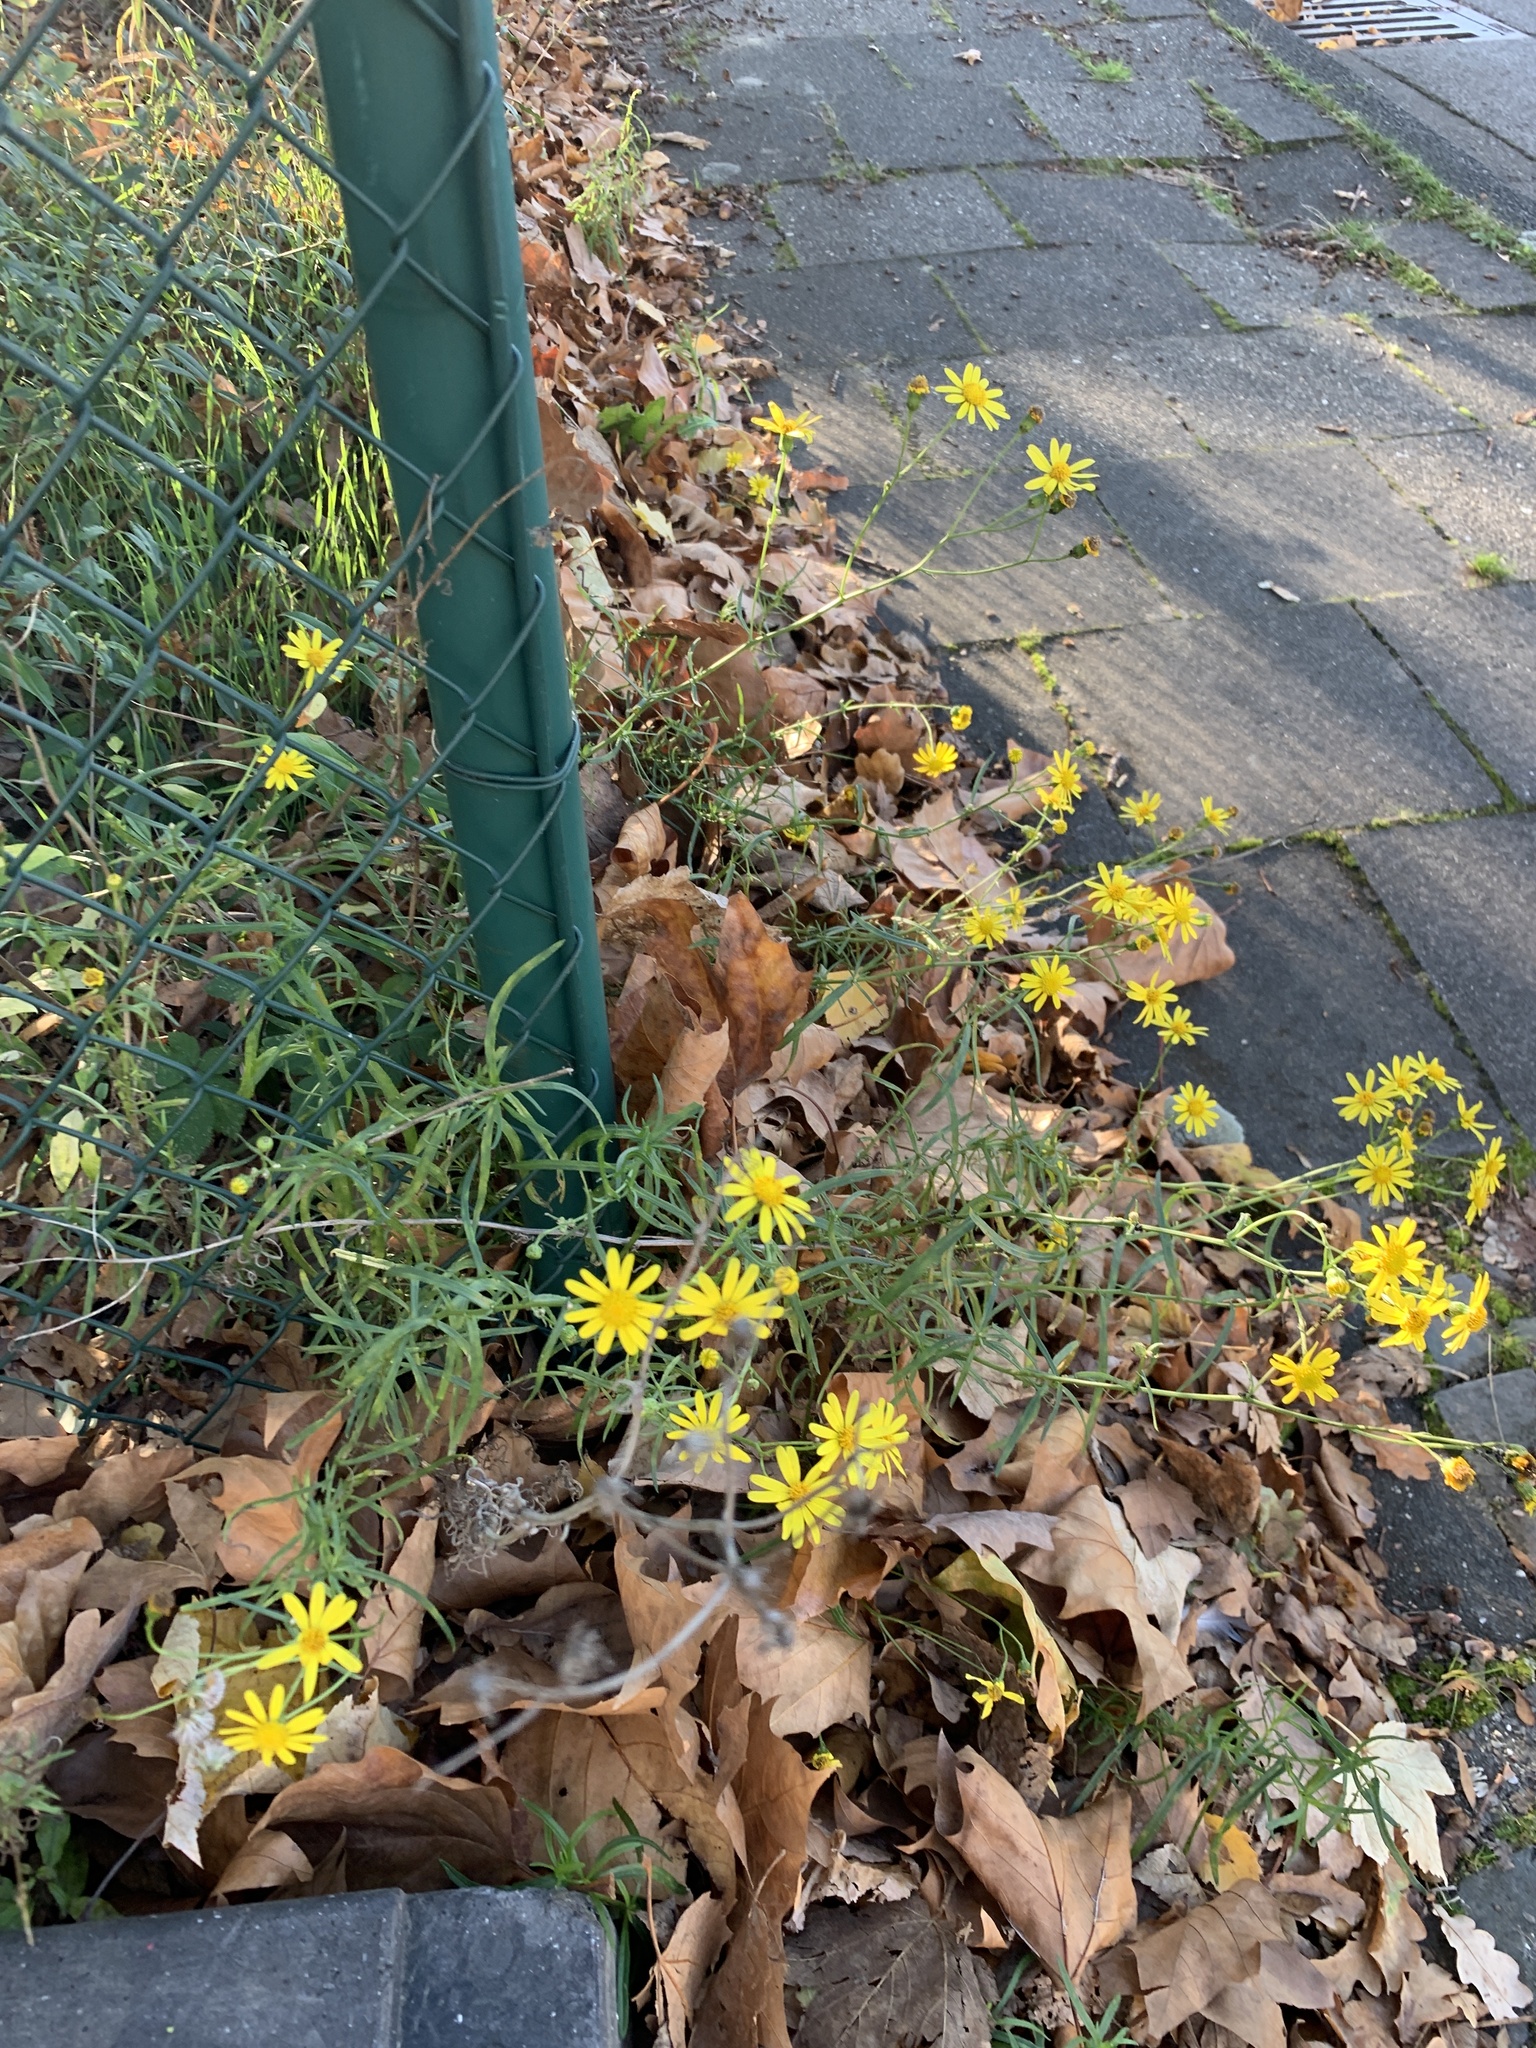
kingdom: Plantae
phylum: Tracheophyta
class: Magnoliopsida
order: Asterales
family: Asteraceae
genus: Senecio
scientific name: Senecio inaequidens
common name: Narrow-leaved ragwort
